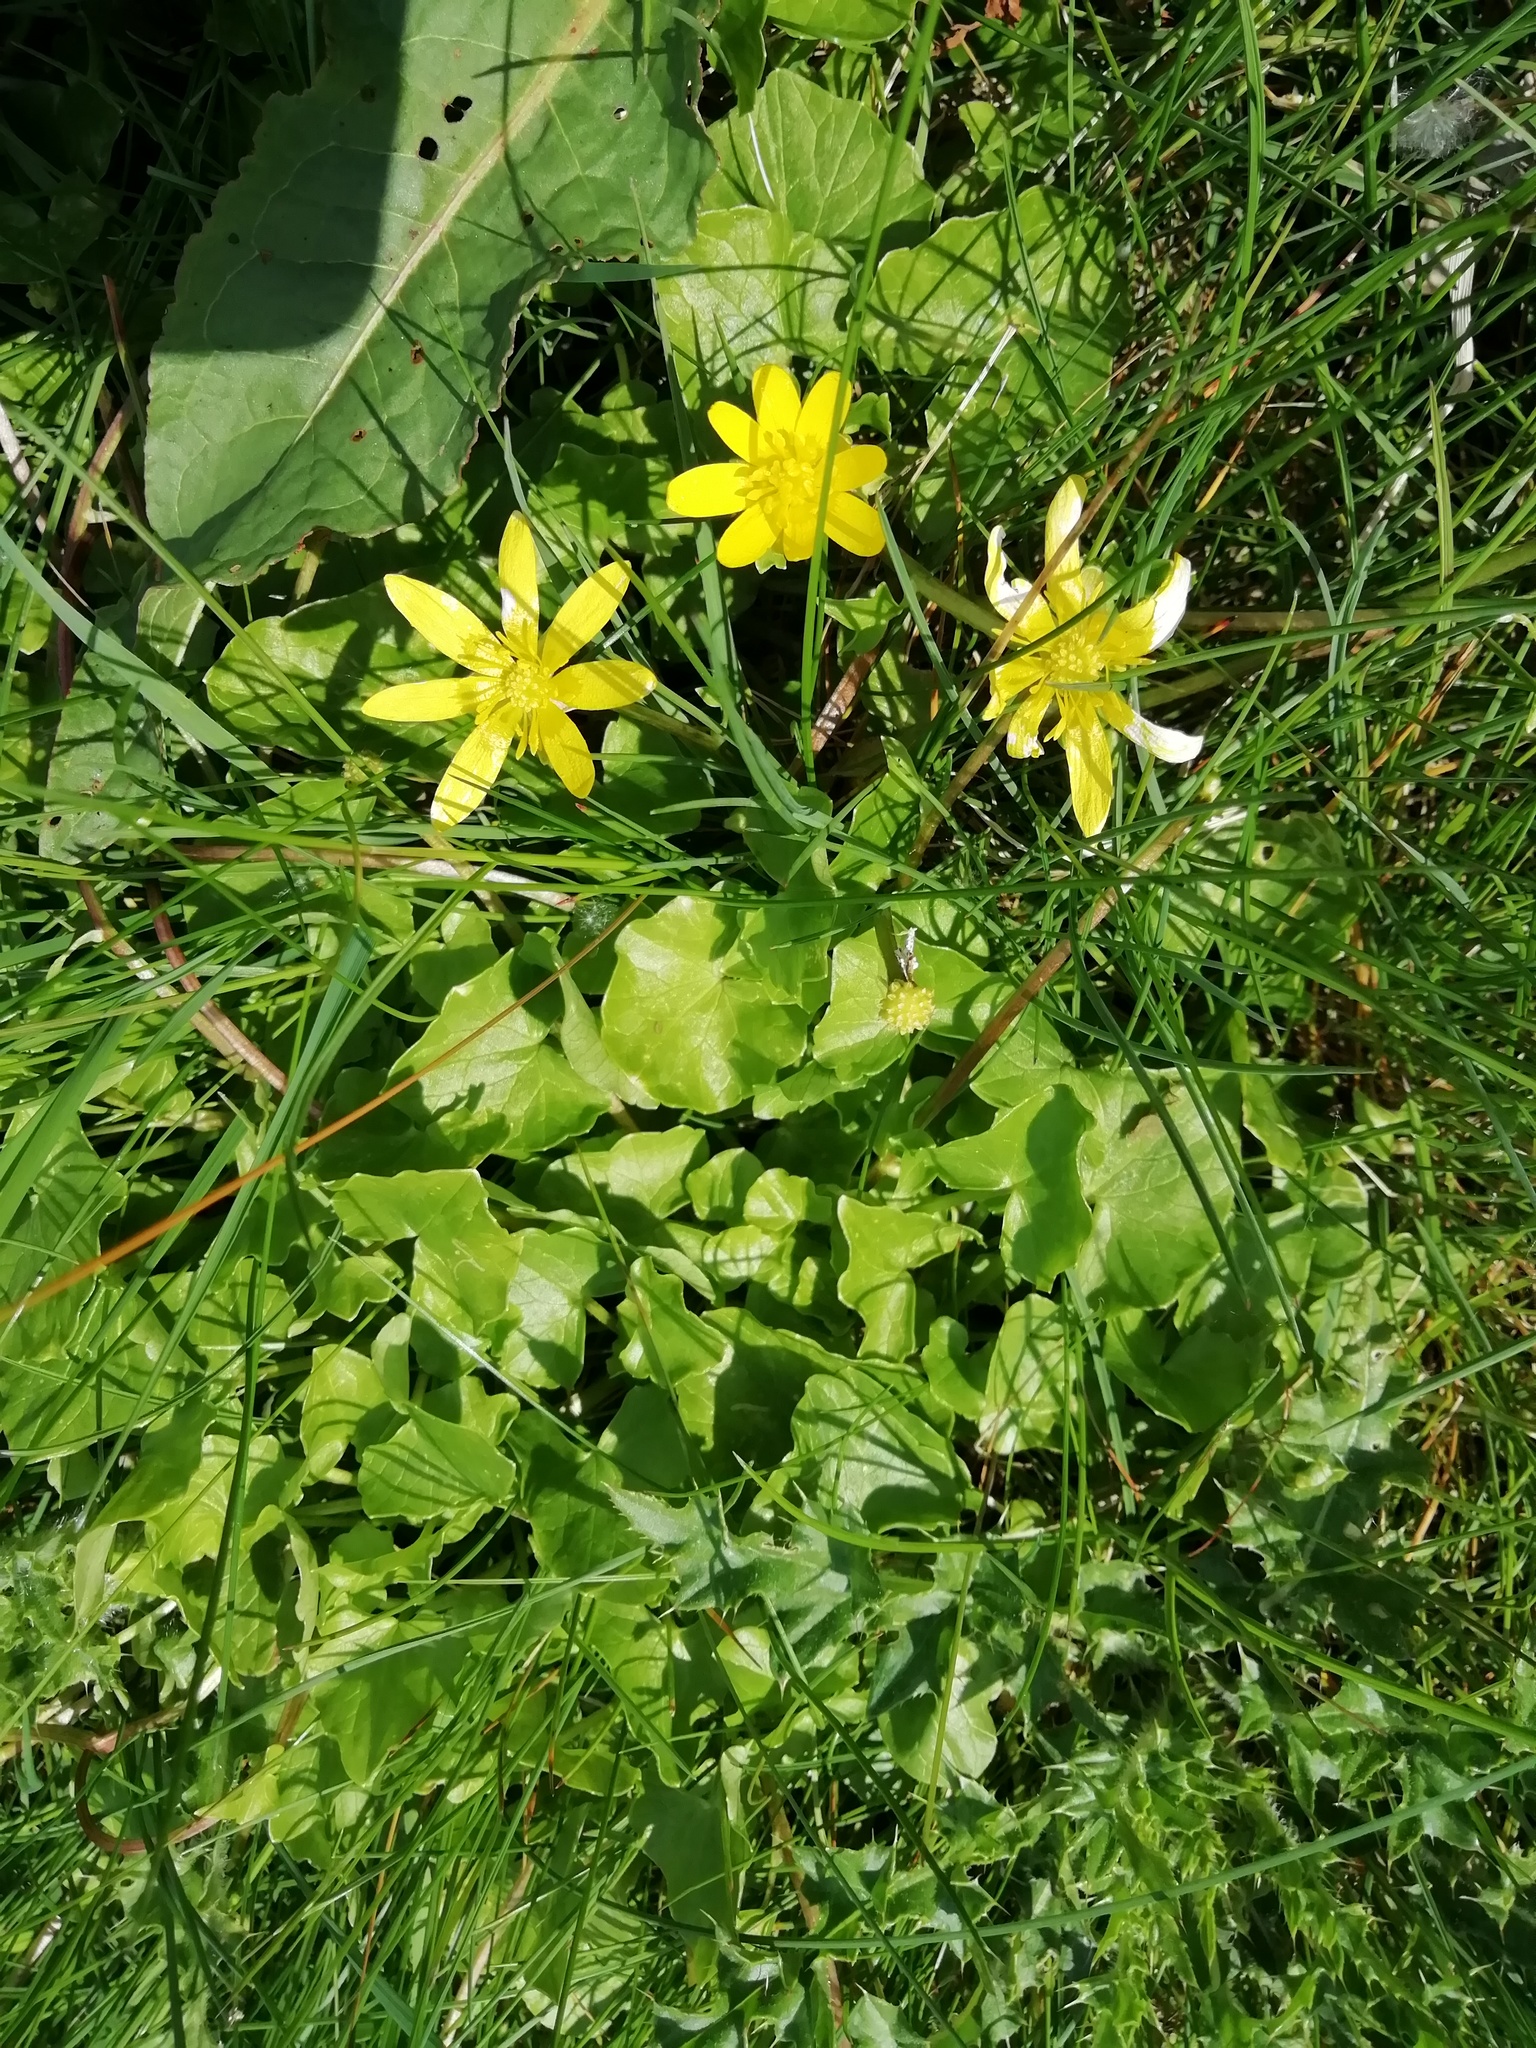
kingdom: Plantae
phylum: Tracheophyta
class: Magnoliopsida
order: Ranunculales
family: Ranunculaceae
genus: Ficaria
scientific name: Ficaria verna
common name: Lesser celandine
